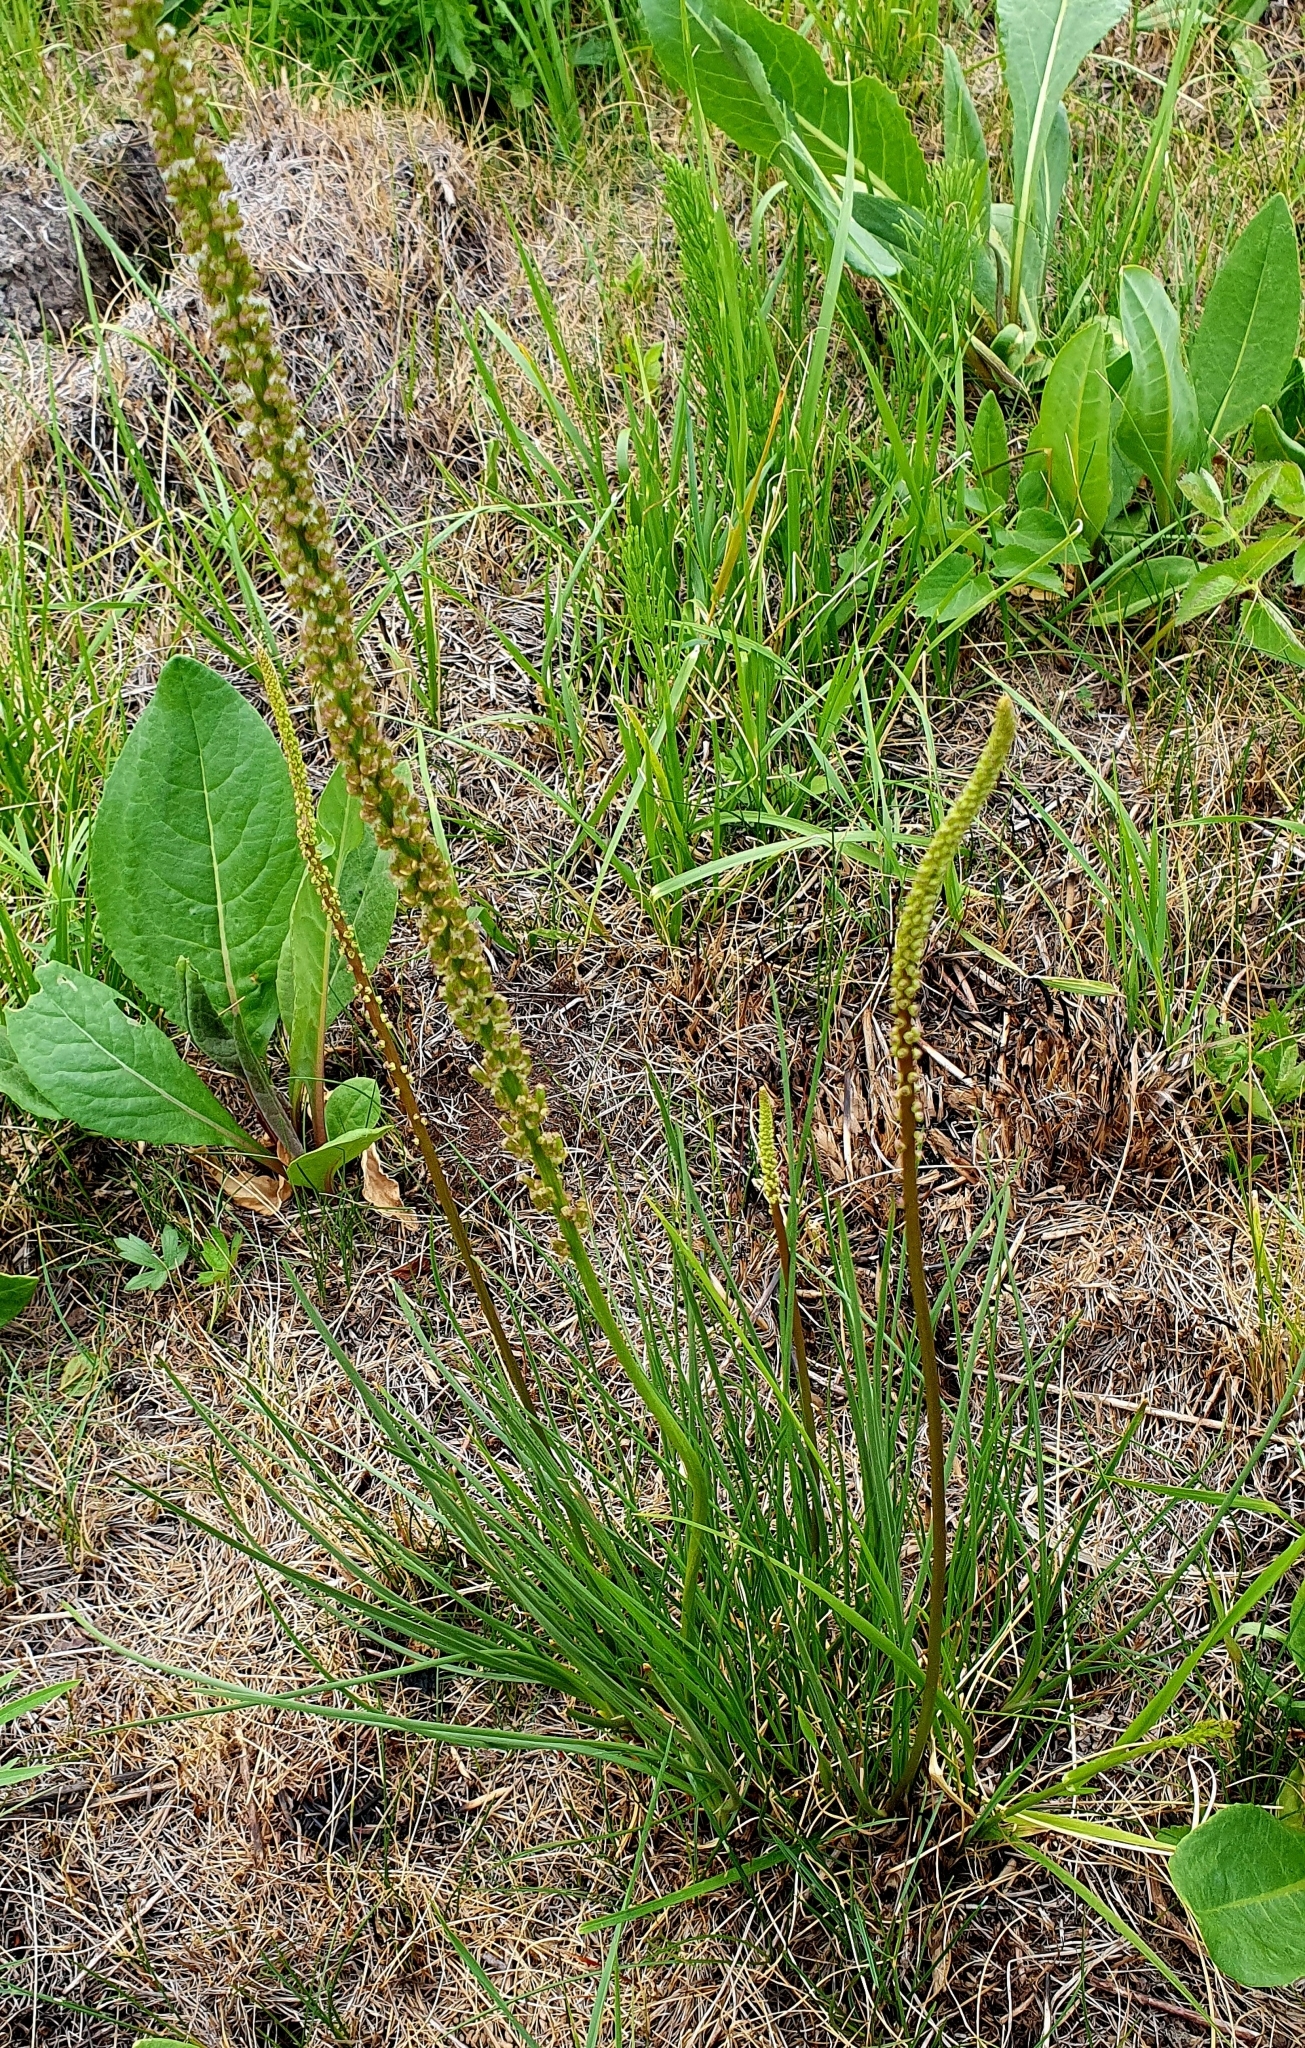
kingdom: Plantae
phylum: Tracheophyta
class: Liliopsida
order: Alismatales
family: Juncaginaceae
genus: Triglochin
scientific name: Triglochin maritima
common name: Sea arrowgrass
